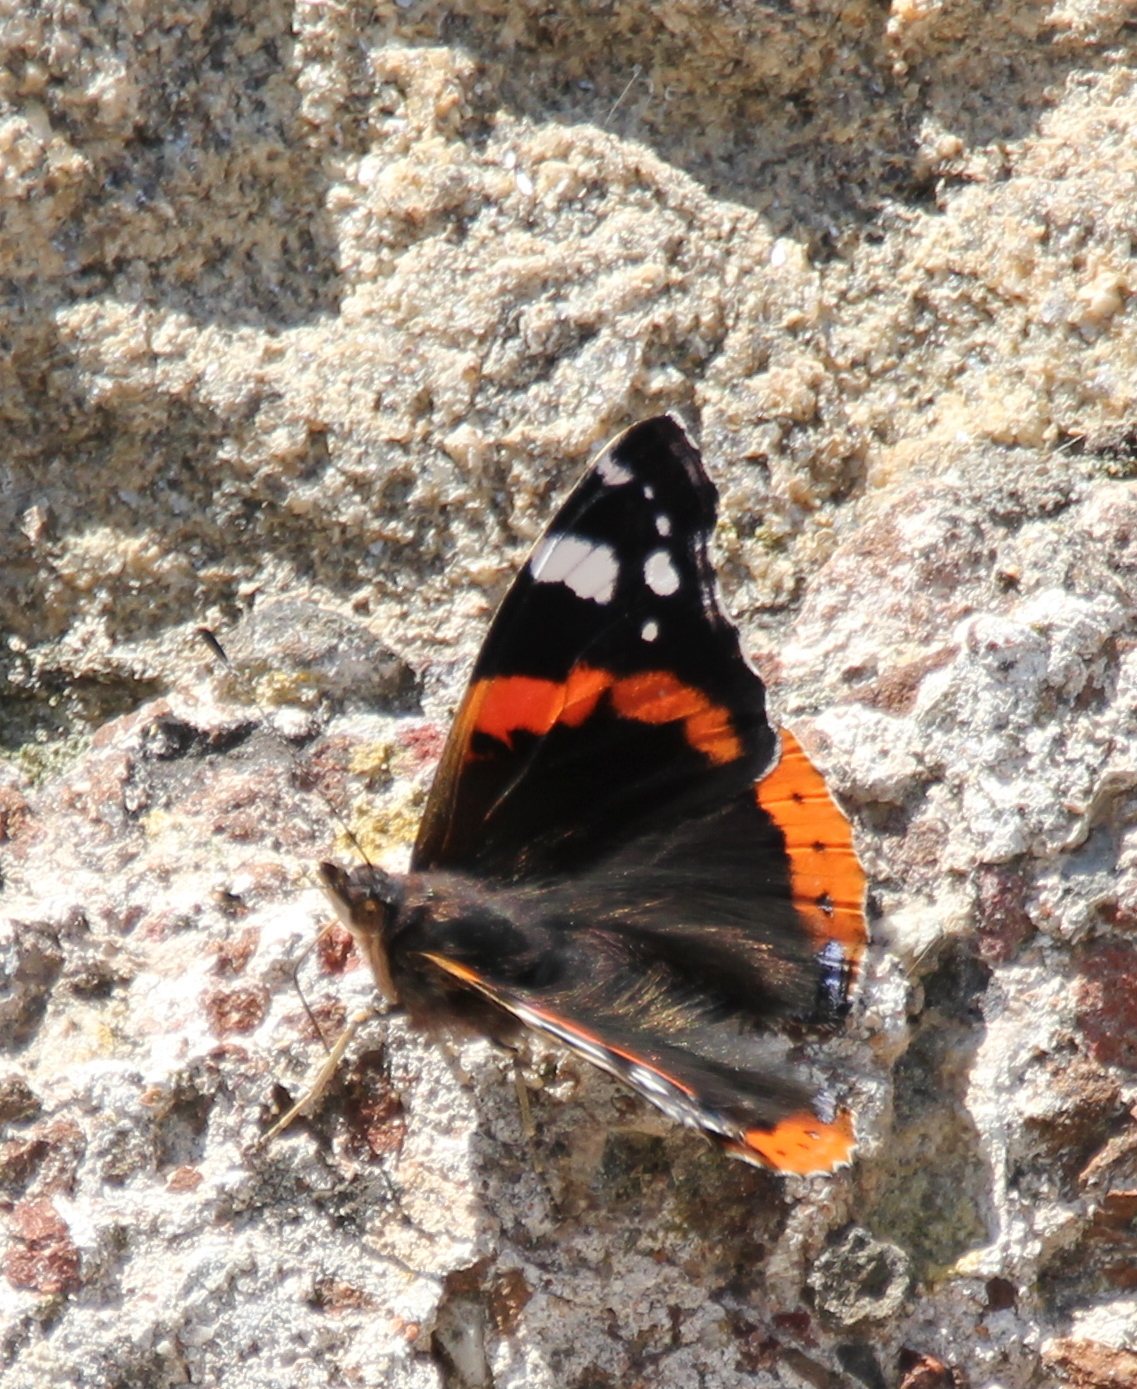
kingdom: Animalia
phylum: Arthropoda
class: Insecta
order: Lepidoptera
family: Nymphalidae
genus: Vanessa
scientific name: Vanessa atalanta
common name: Red admiral
